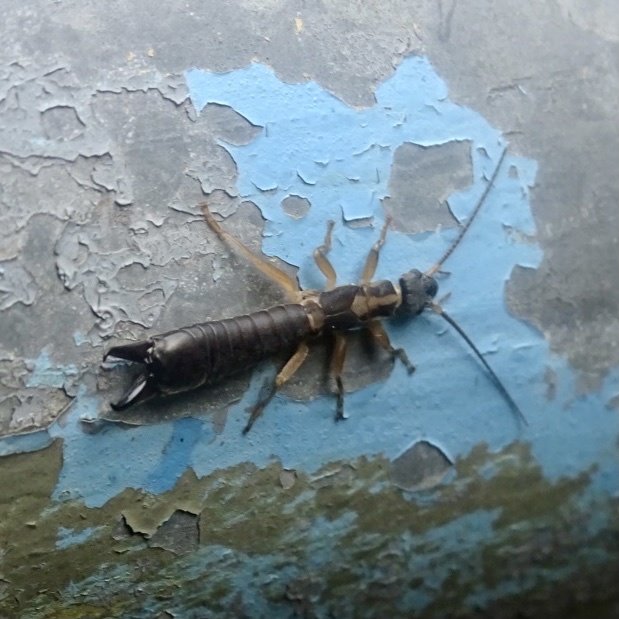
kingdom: Animalia
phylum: Arthropoda
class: Insecta
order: Dermaptera
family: Pygidicranidae
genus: Cranopygia
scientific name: Cranopygia vitticollis
